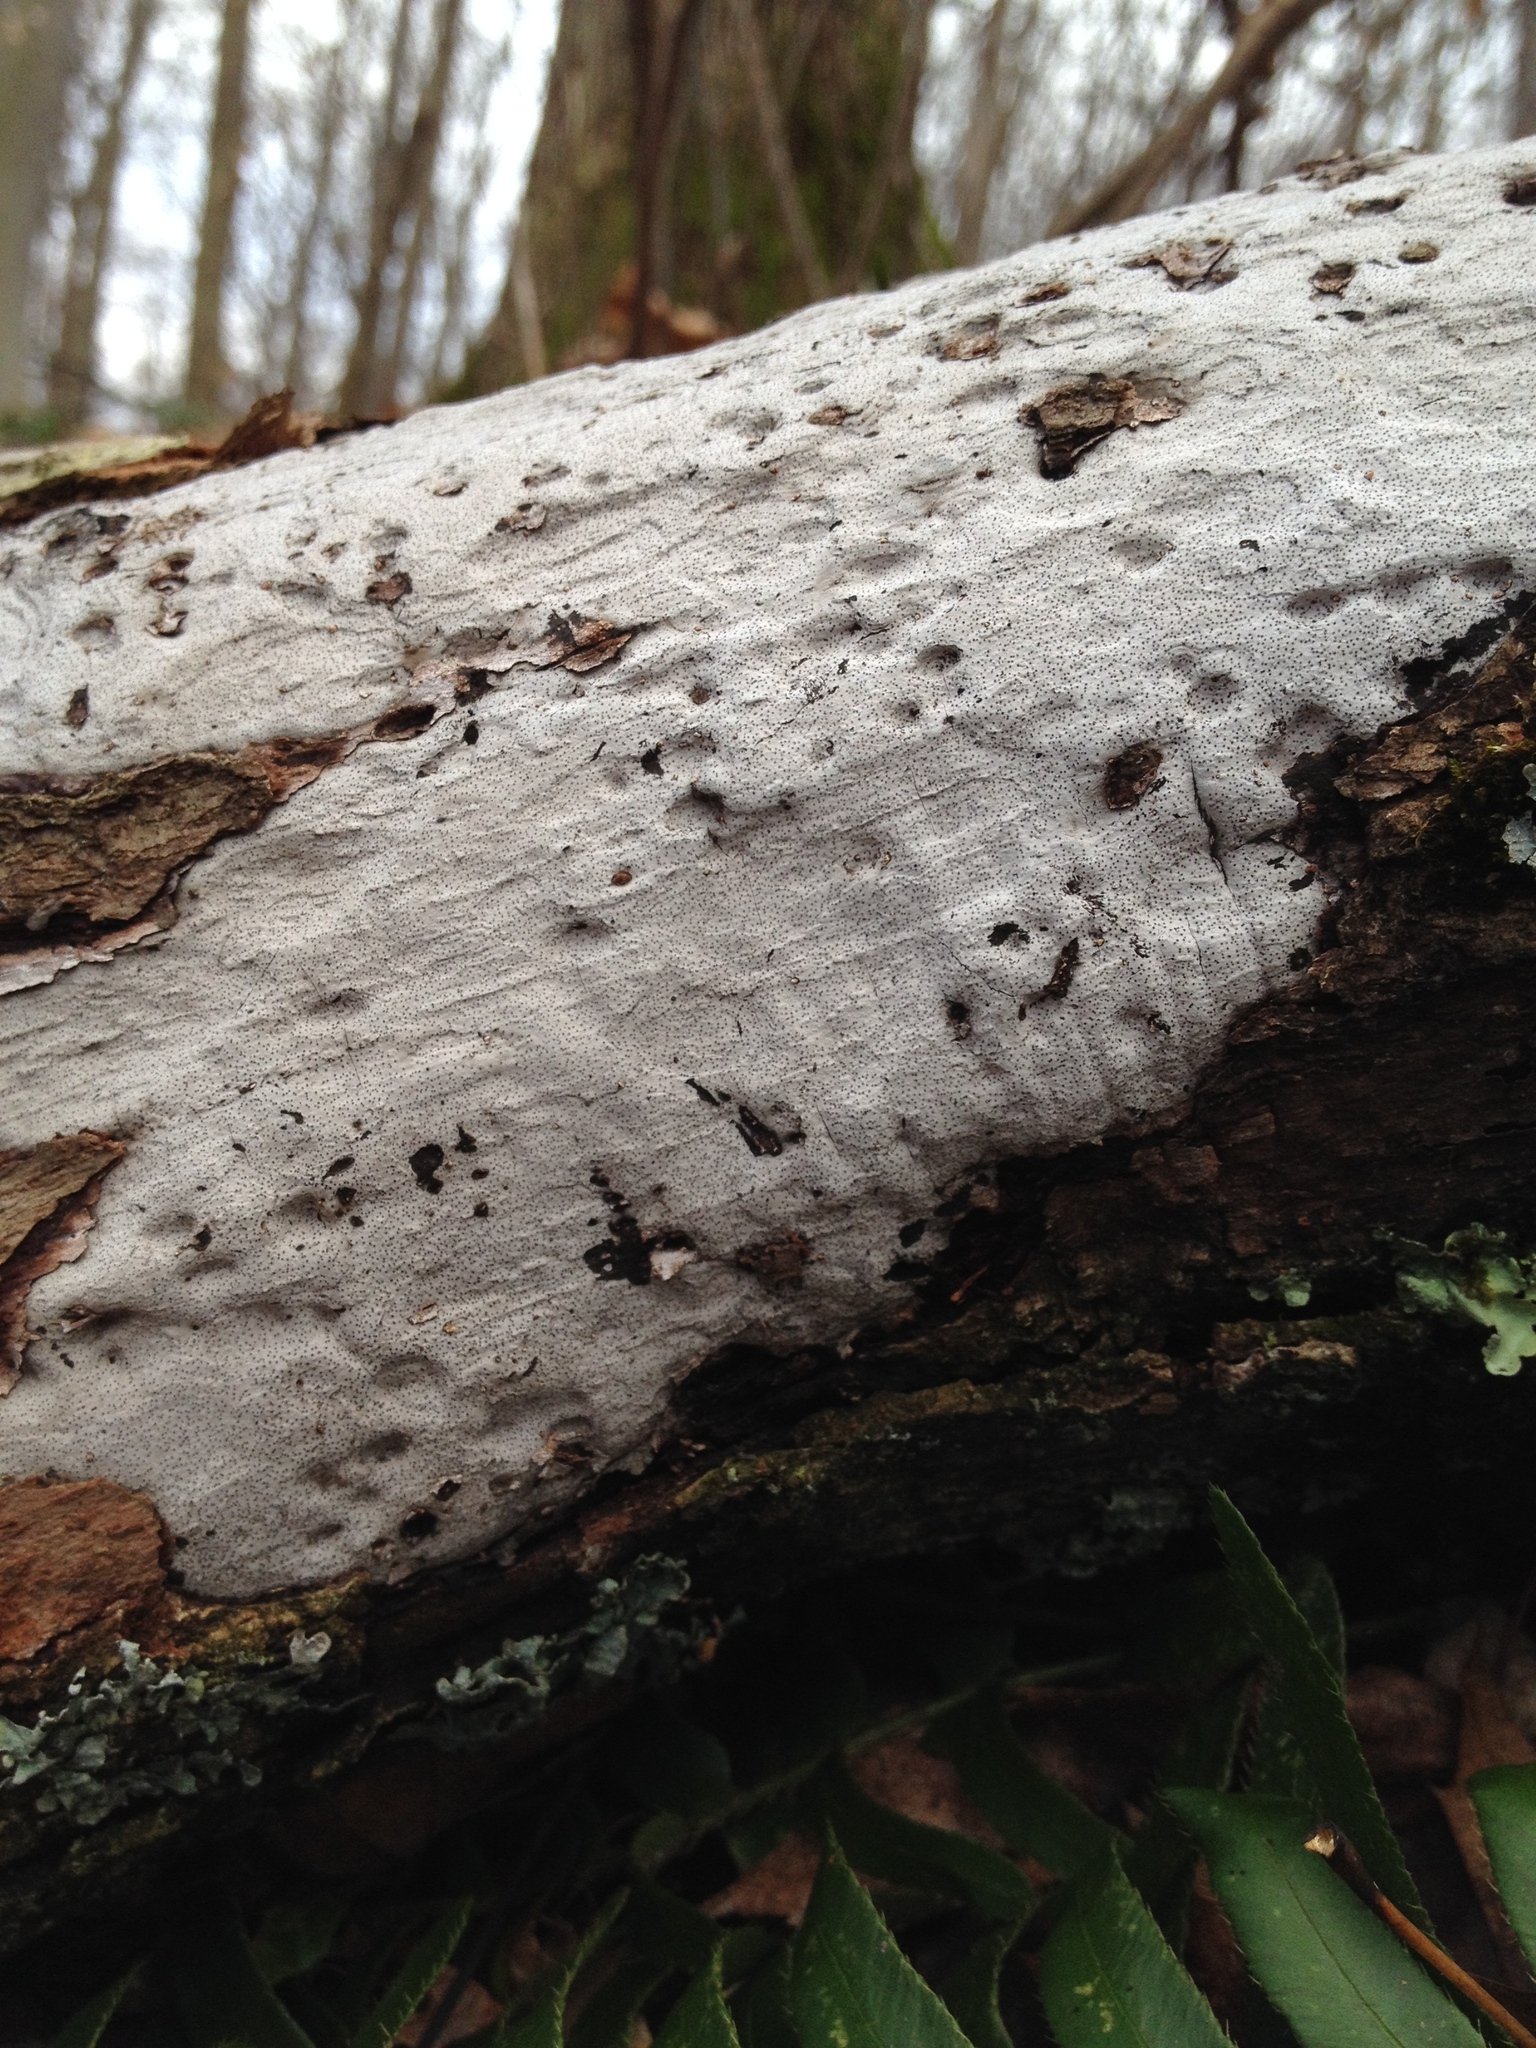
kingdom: Fungi
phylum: Ascomycota
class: Sordariomycetes
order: Xylariales
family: Graphostromataceae
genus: Biscogniauxia
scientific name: Biscogniauxia atropunctata
